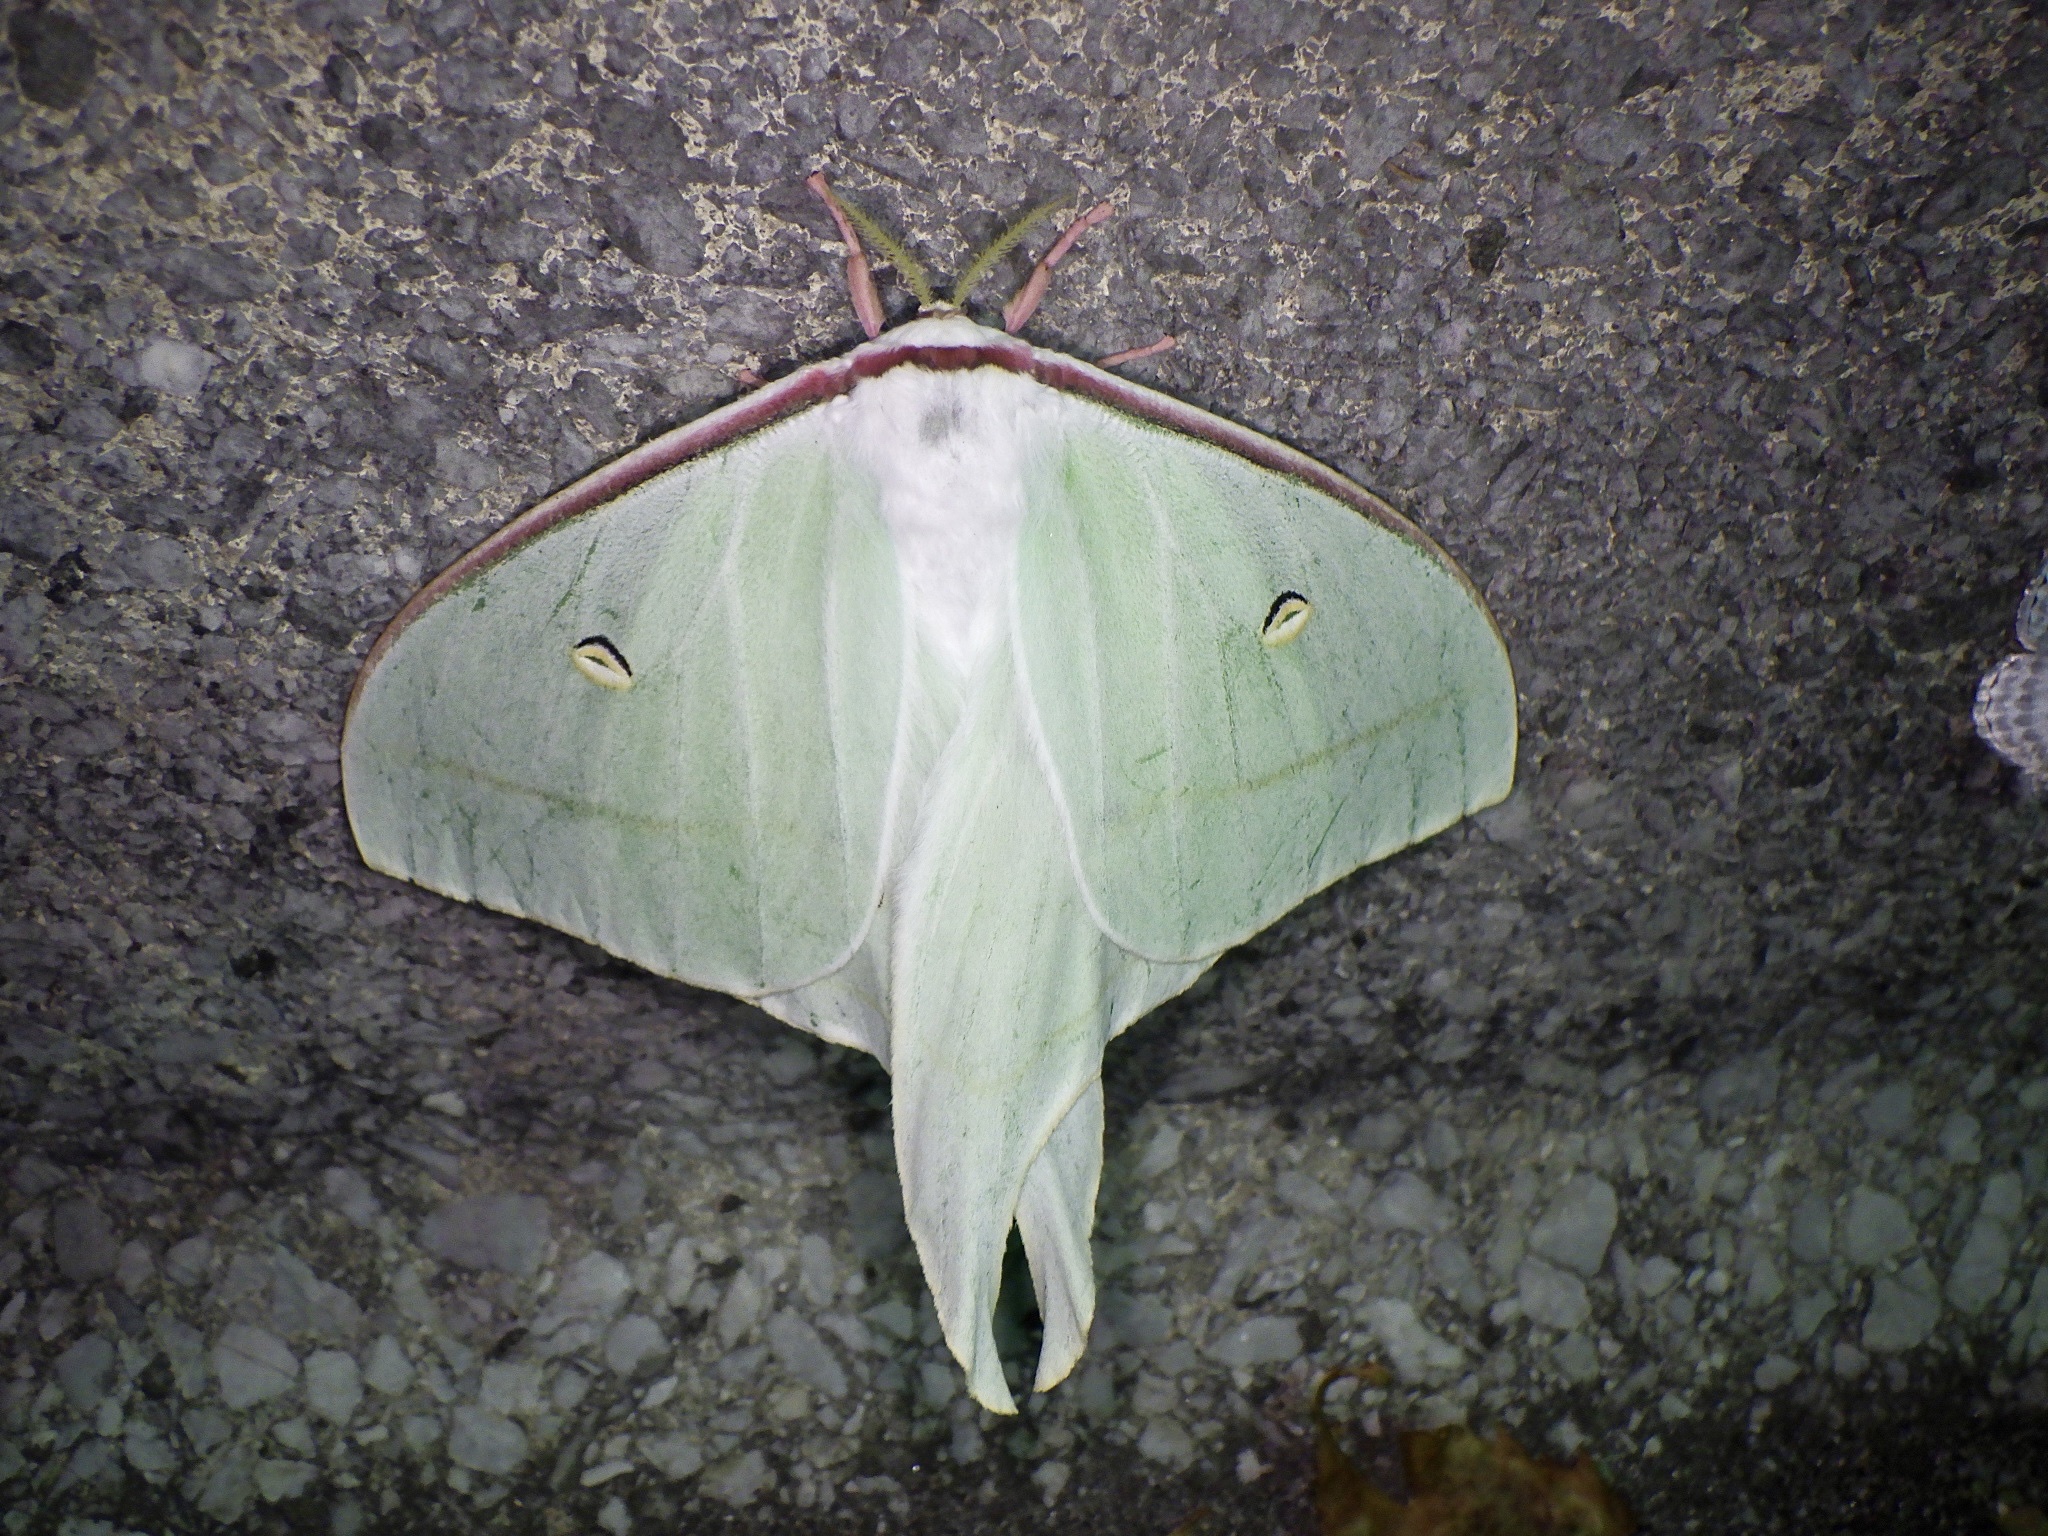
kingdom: Animalia
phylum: Arthropoda
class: Insecta
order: Lepidoptera
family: Saturniidae
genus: Actias
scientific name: Actias gnoma
